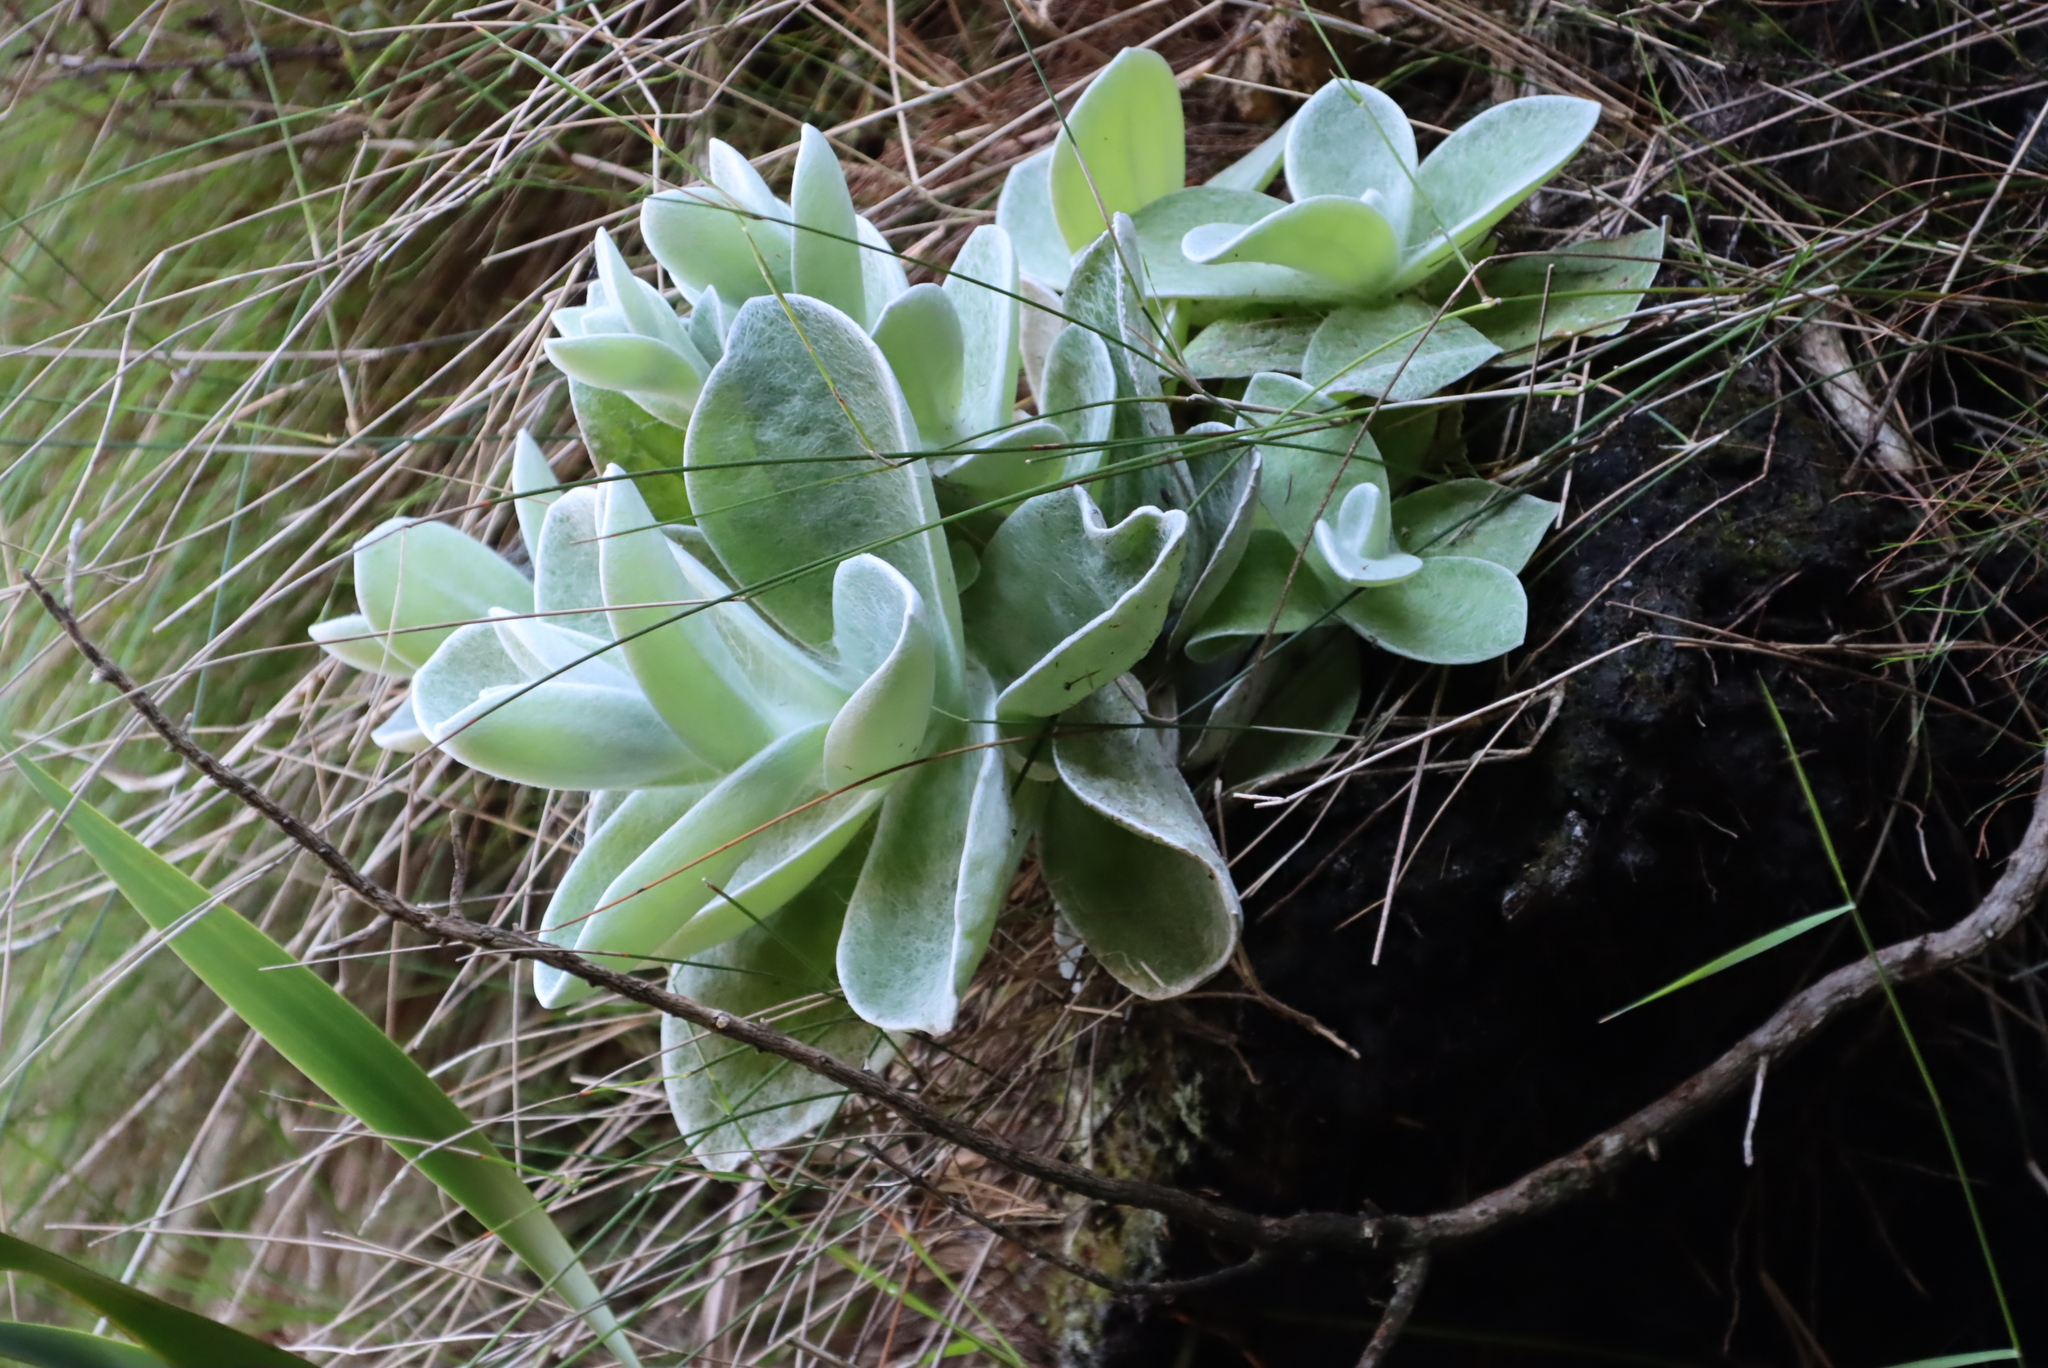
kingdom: Plantae
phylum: Tracheophyta
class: Magnoliopsida
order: Asterales
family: Asteraceae
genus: Helichrysum
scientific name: Helichrysum grandiflorum
